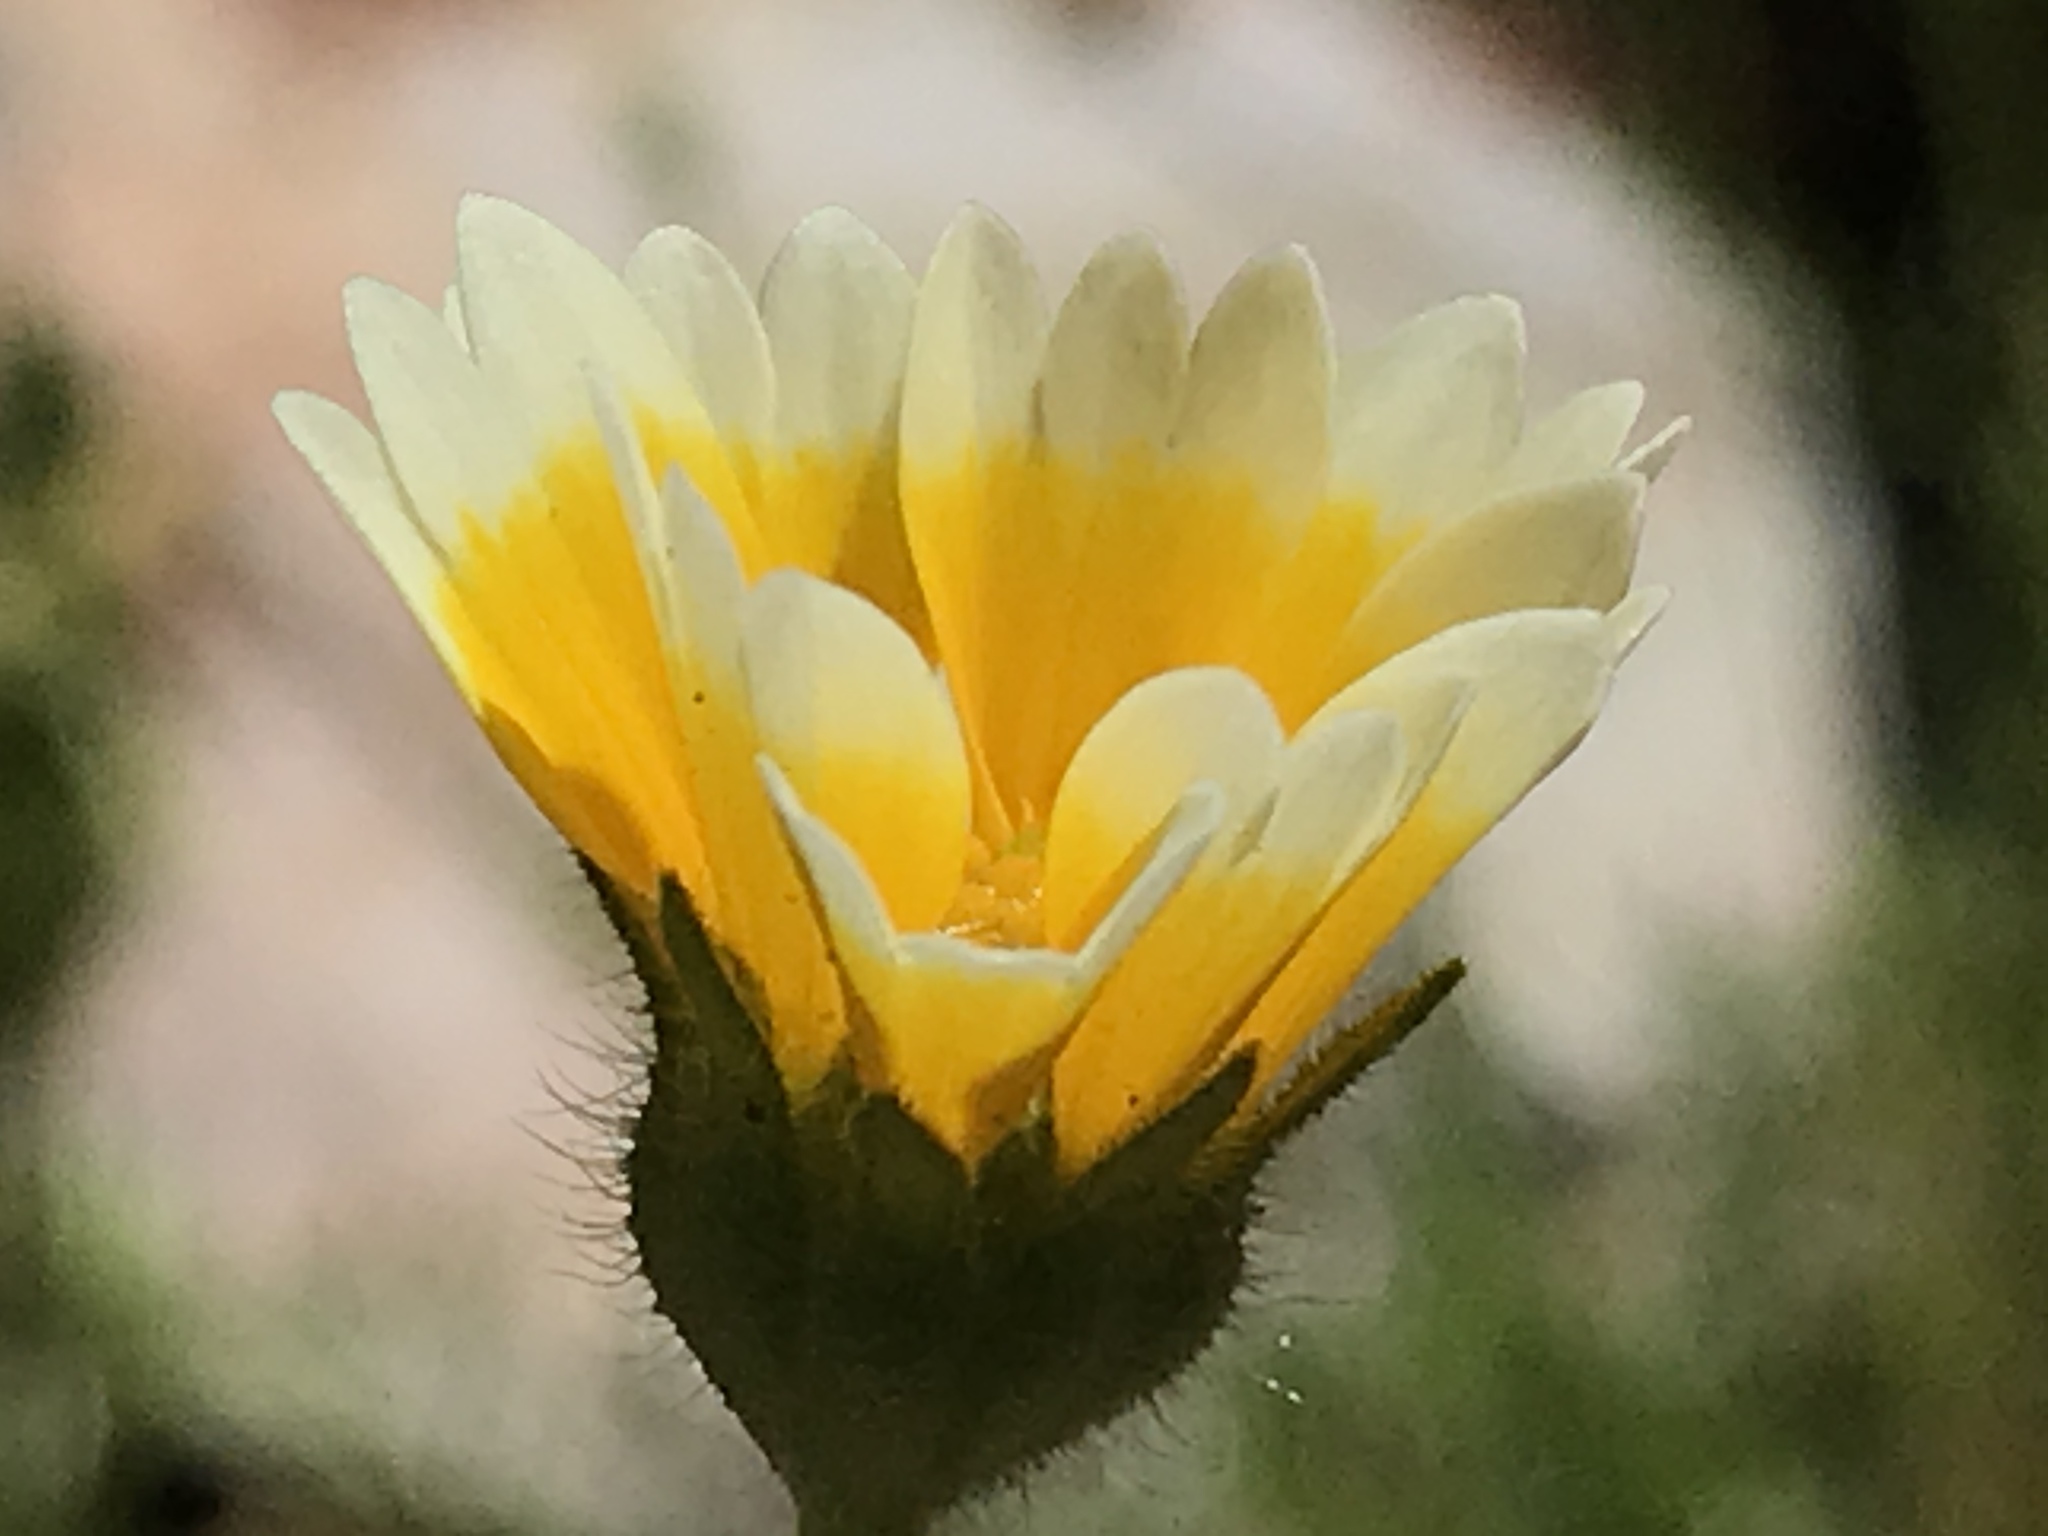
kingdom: Plantae
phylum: Tracheophyta
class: Magnoliopsida
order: Asterales
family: Asteraceae
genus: Layia
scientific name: Layia platyglossa
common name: Tidy-tips
